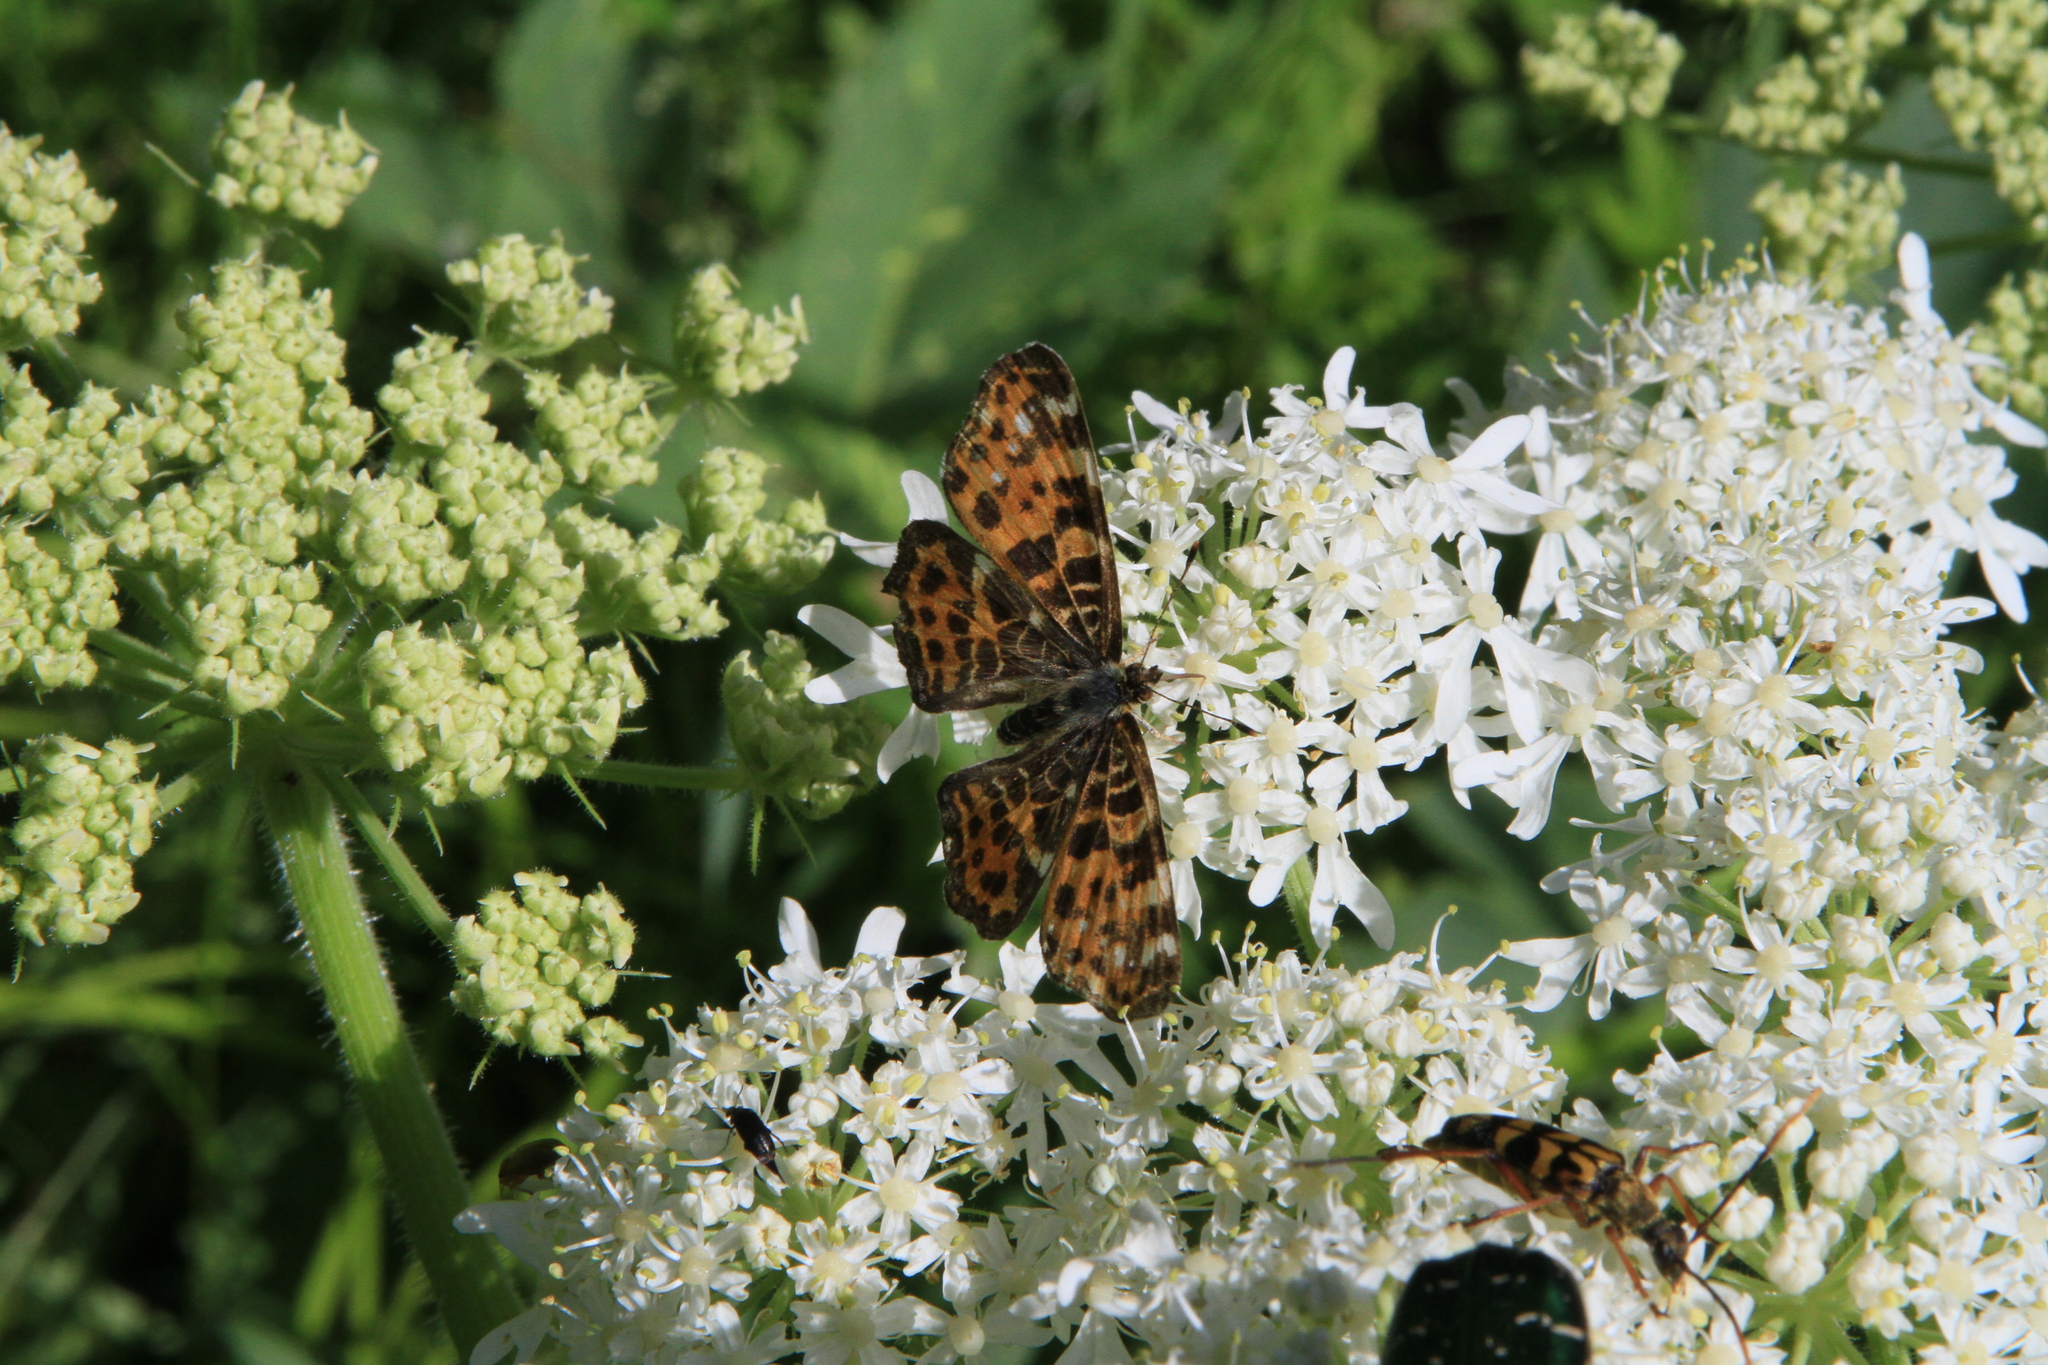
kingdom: Animalia
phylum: Arthropoda
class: Insecta
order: Lepidoptera
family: Nymphalidae
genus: Araschnia
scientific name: Araschnia levana
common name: Map butterfly
